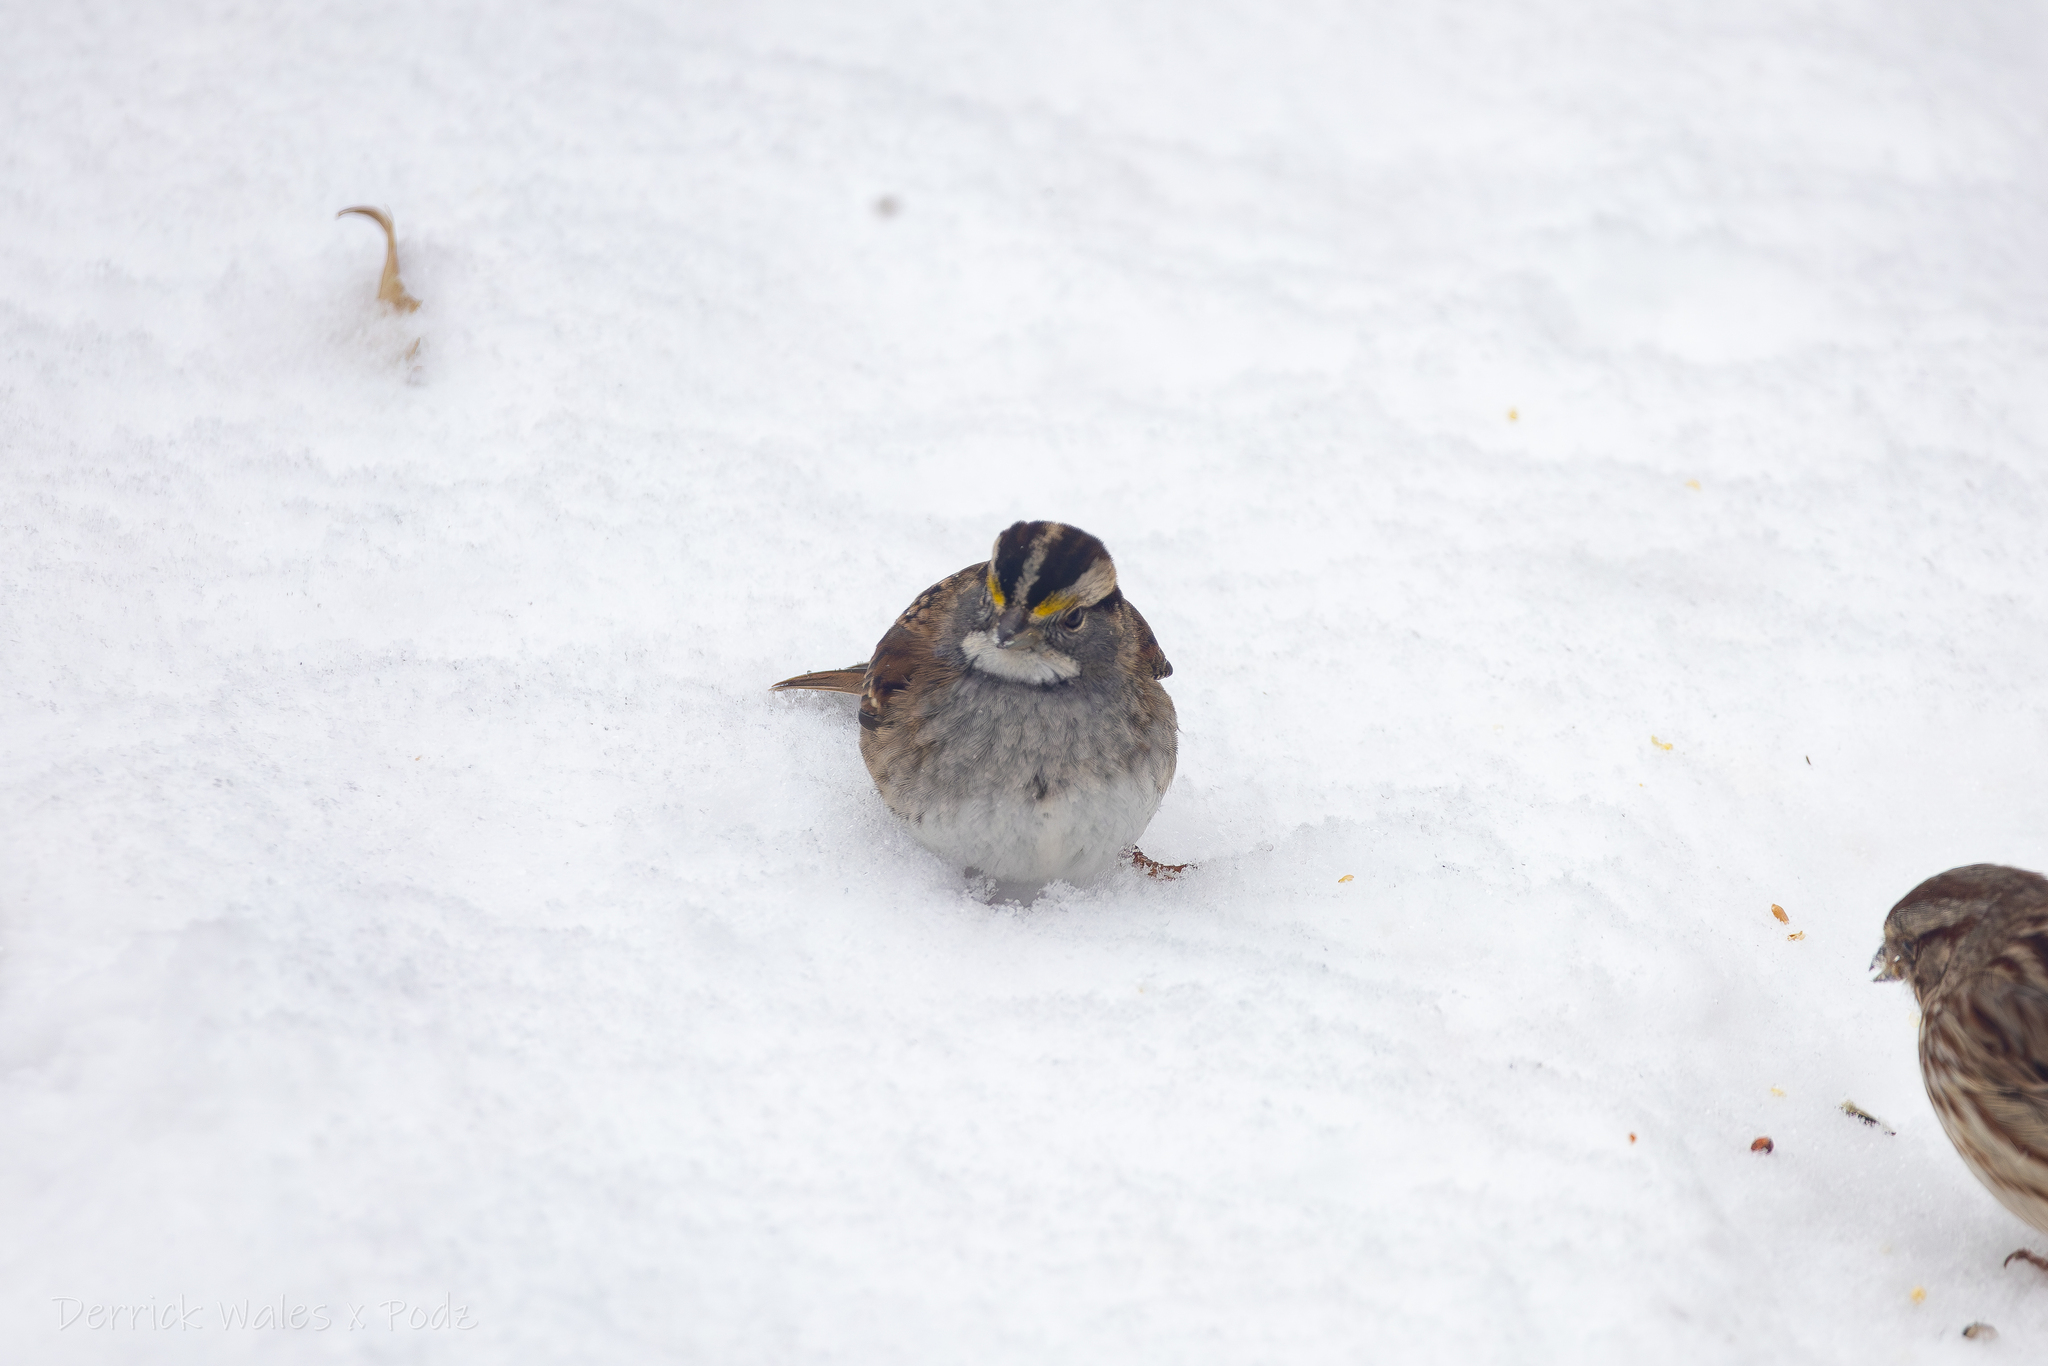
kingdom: Animalia
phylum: Chordata
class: Aves
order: Passeriformes
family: Passerellidae
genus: Zonotrichia
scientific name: Zonotrichia albicollis
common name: White-throated sparrow
